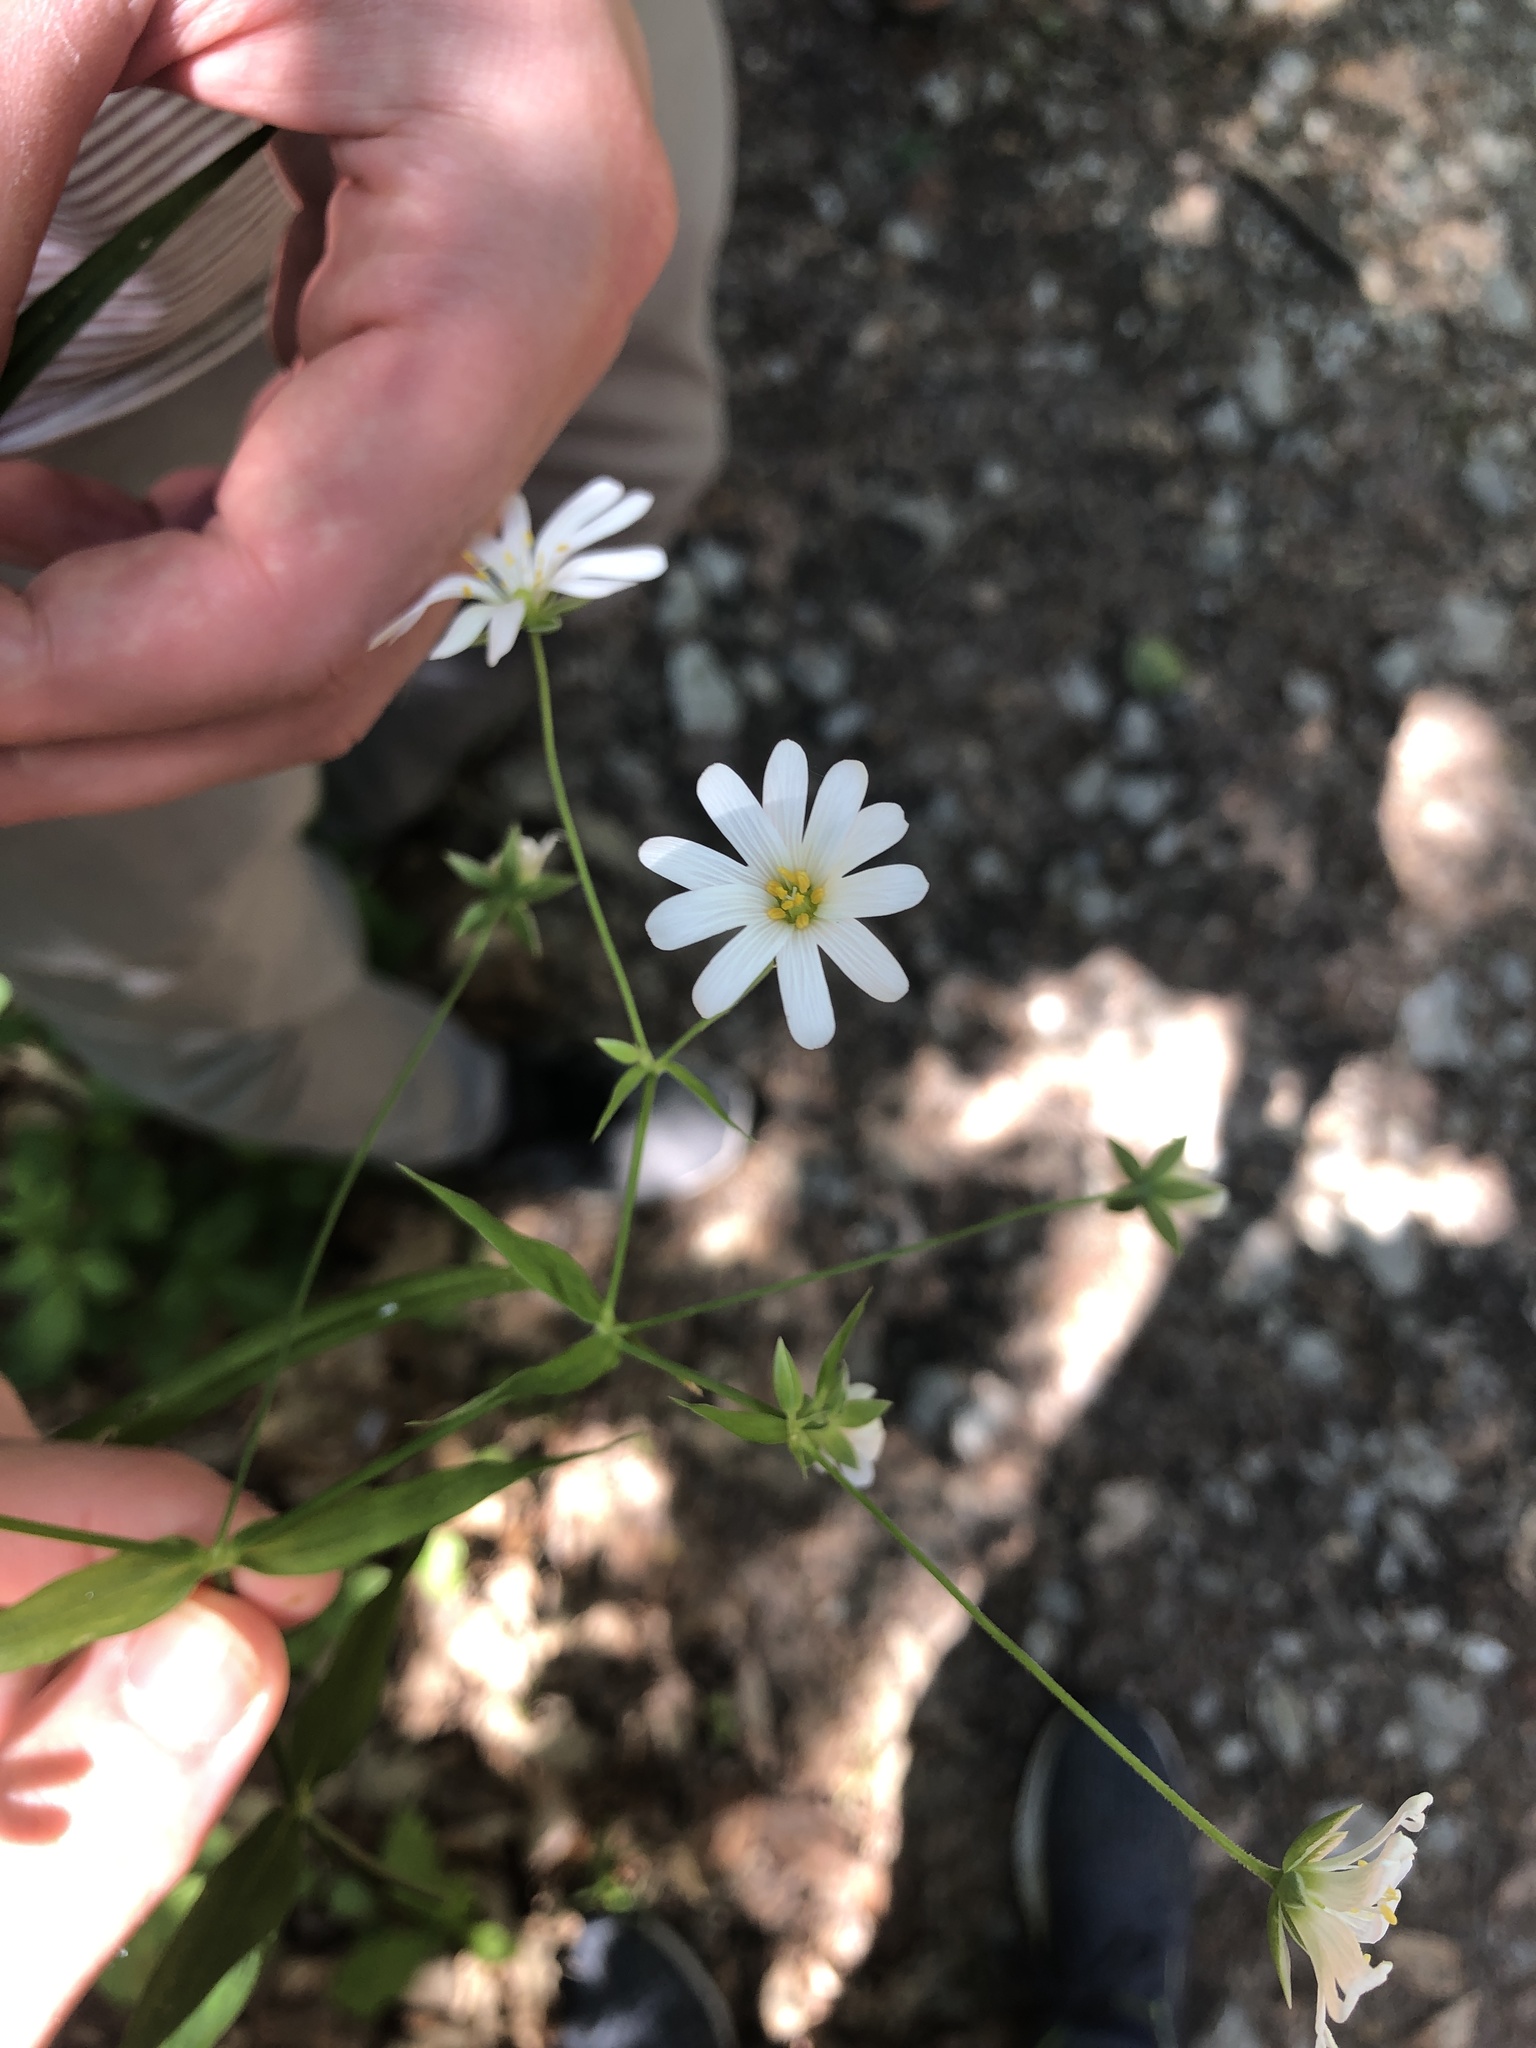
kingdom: Plantae
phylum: Tracheophyta
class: Magnoliopsida
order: Caryophyllales
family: Caryophyllaceae
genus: Rabelera
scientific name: Rabelera holostea
